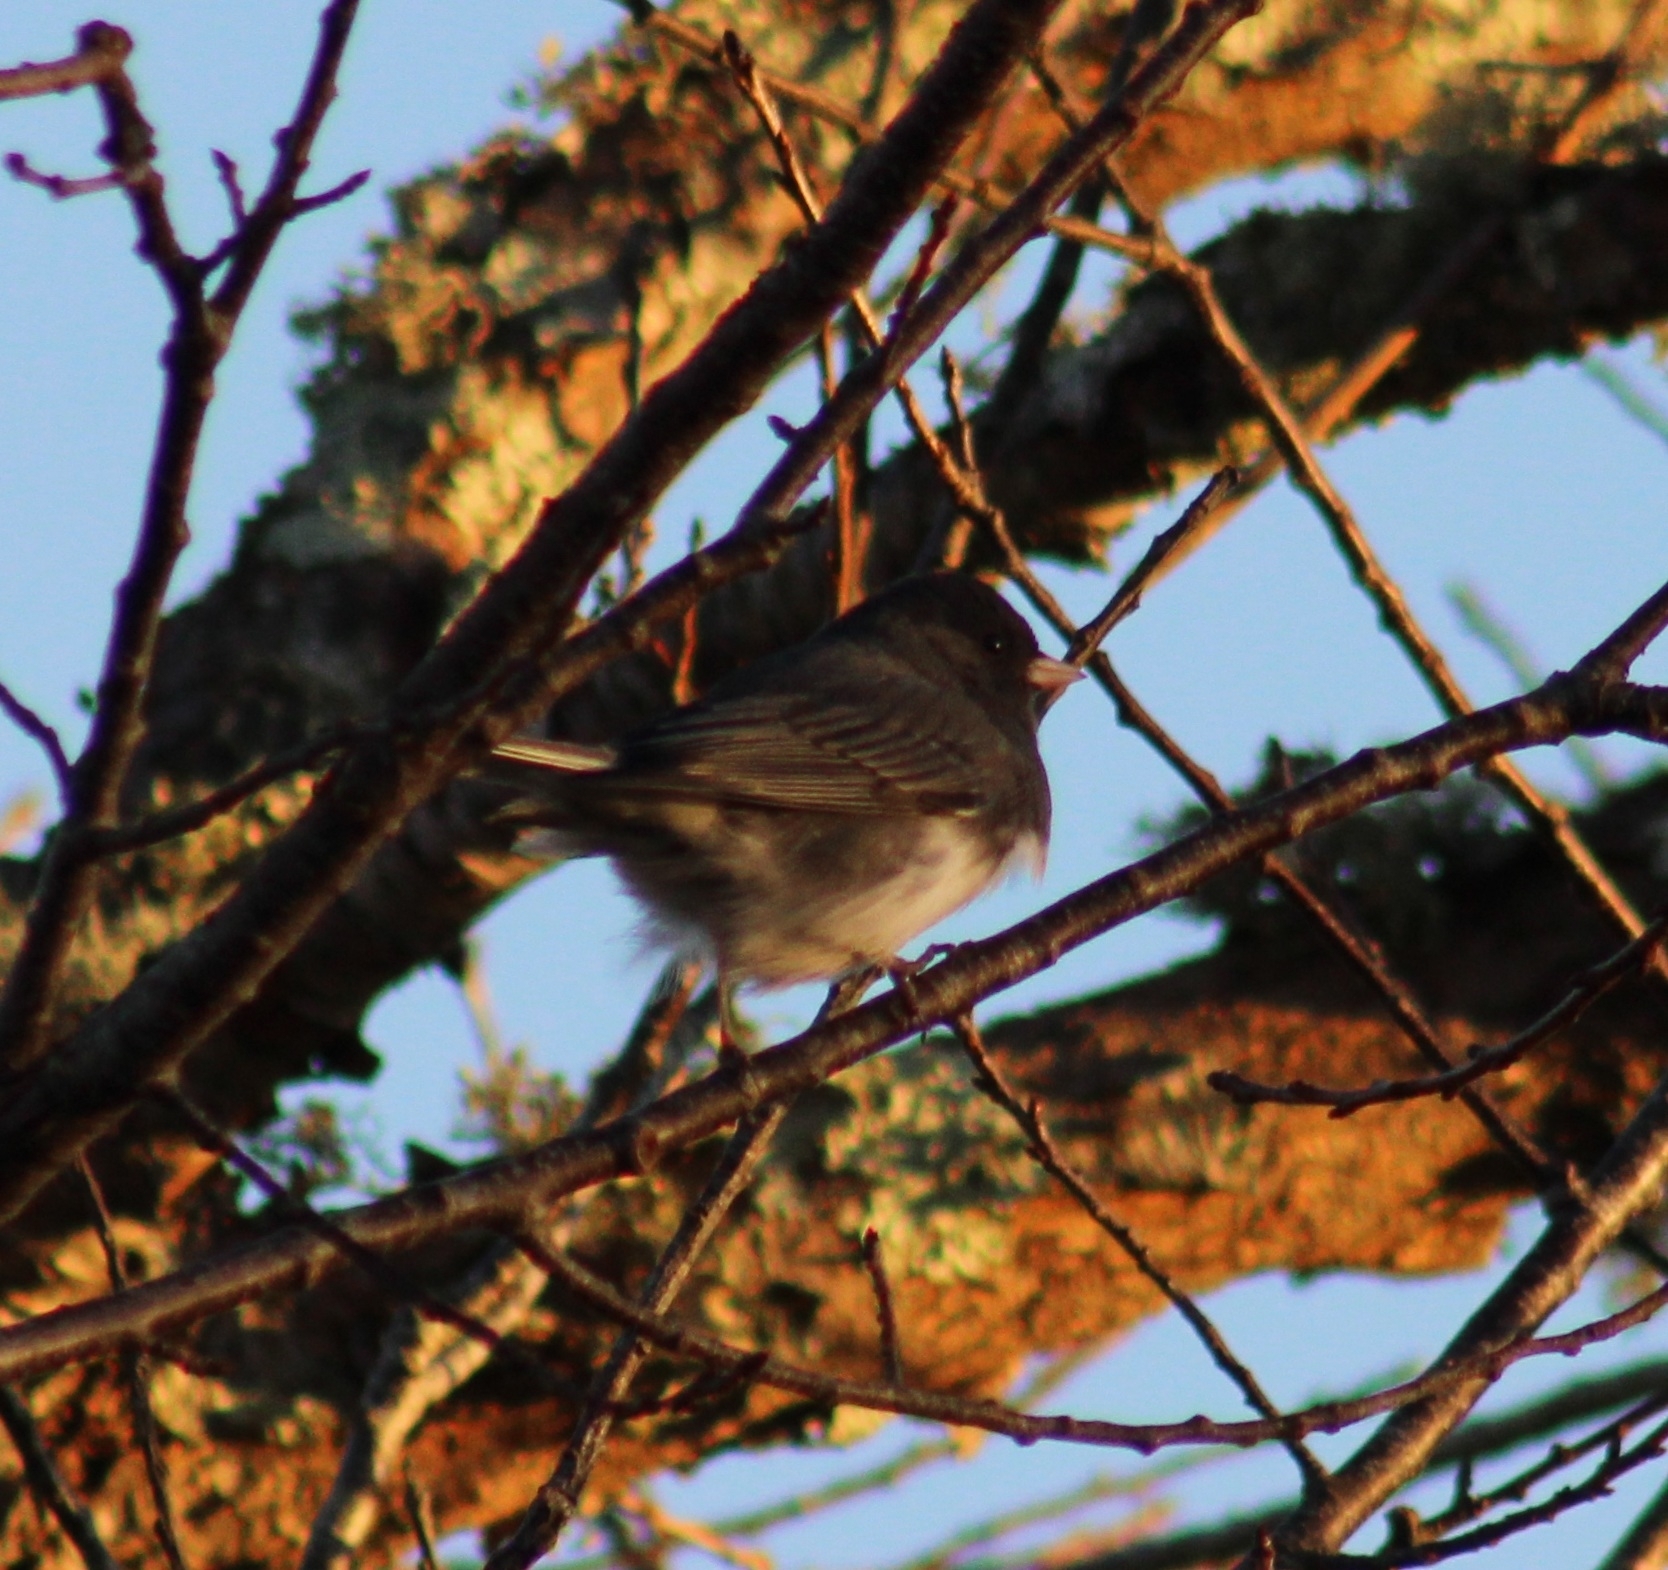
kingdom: Animalia
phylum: Chordata
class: Aves
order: Passeriformes
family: Passerellidae
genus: Junco
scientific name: Junco hyemalis
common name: Dark-eyed junco
